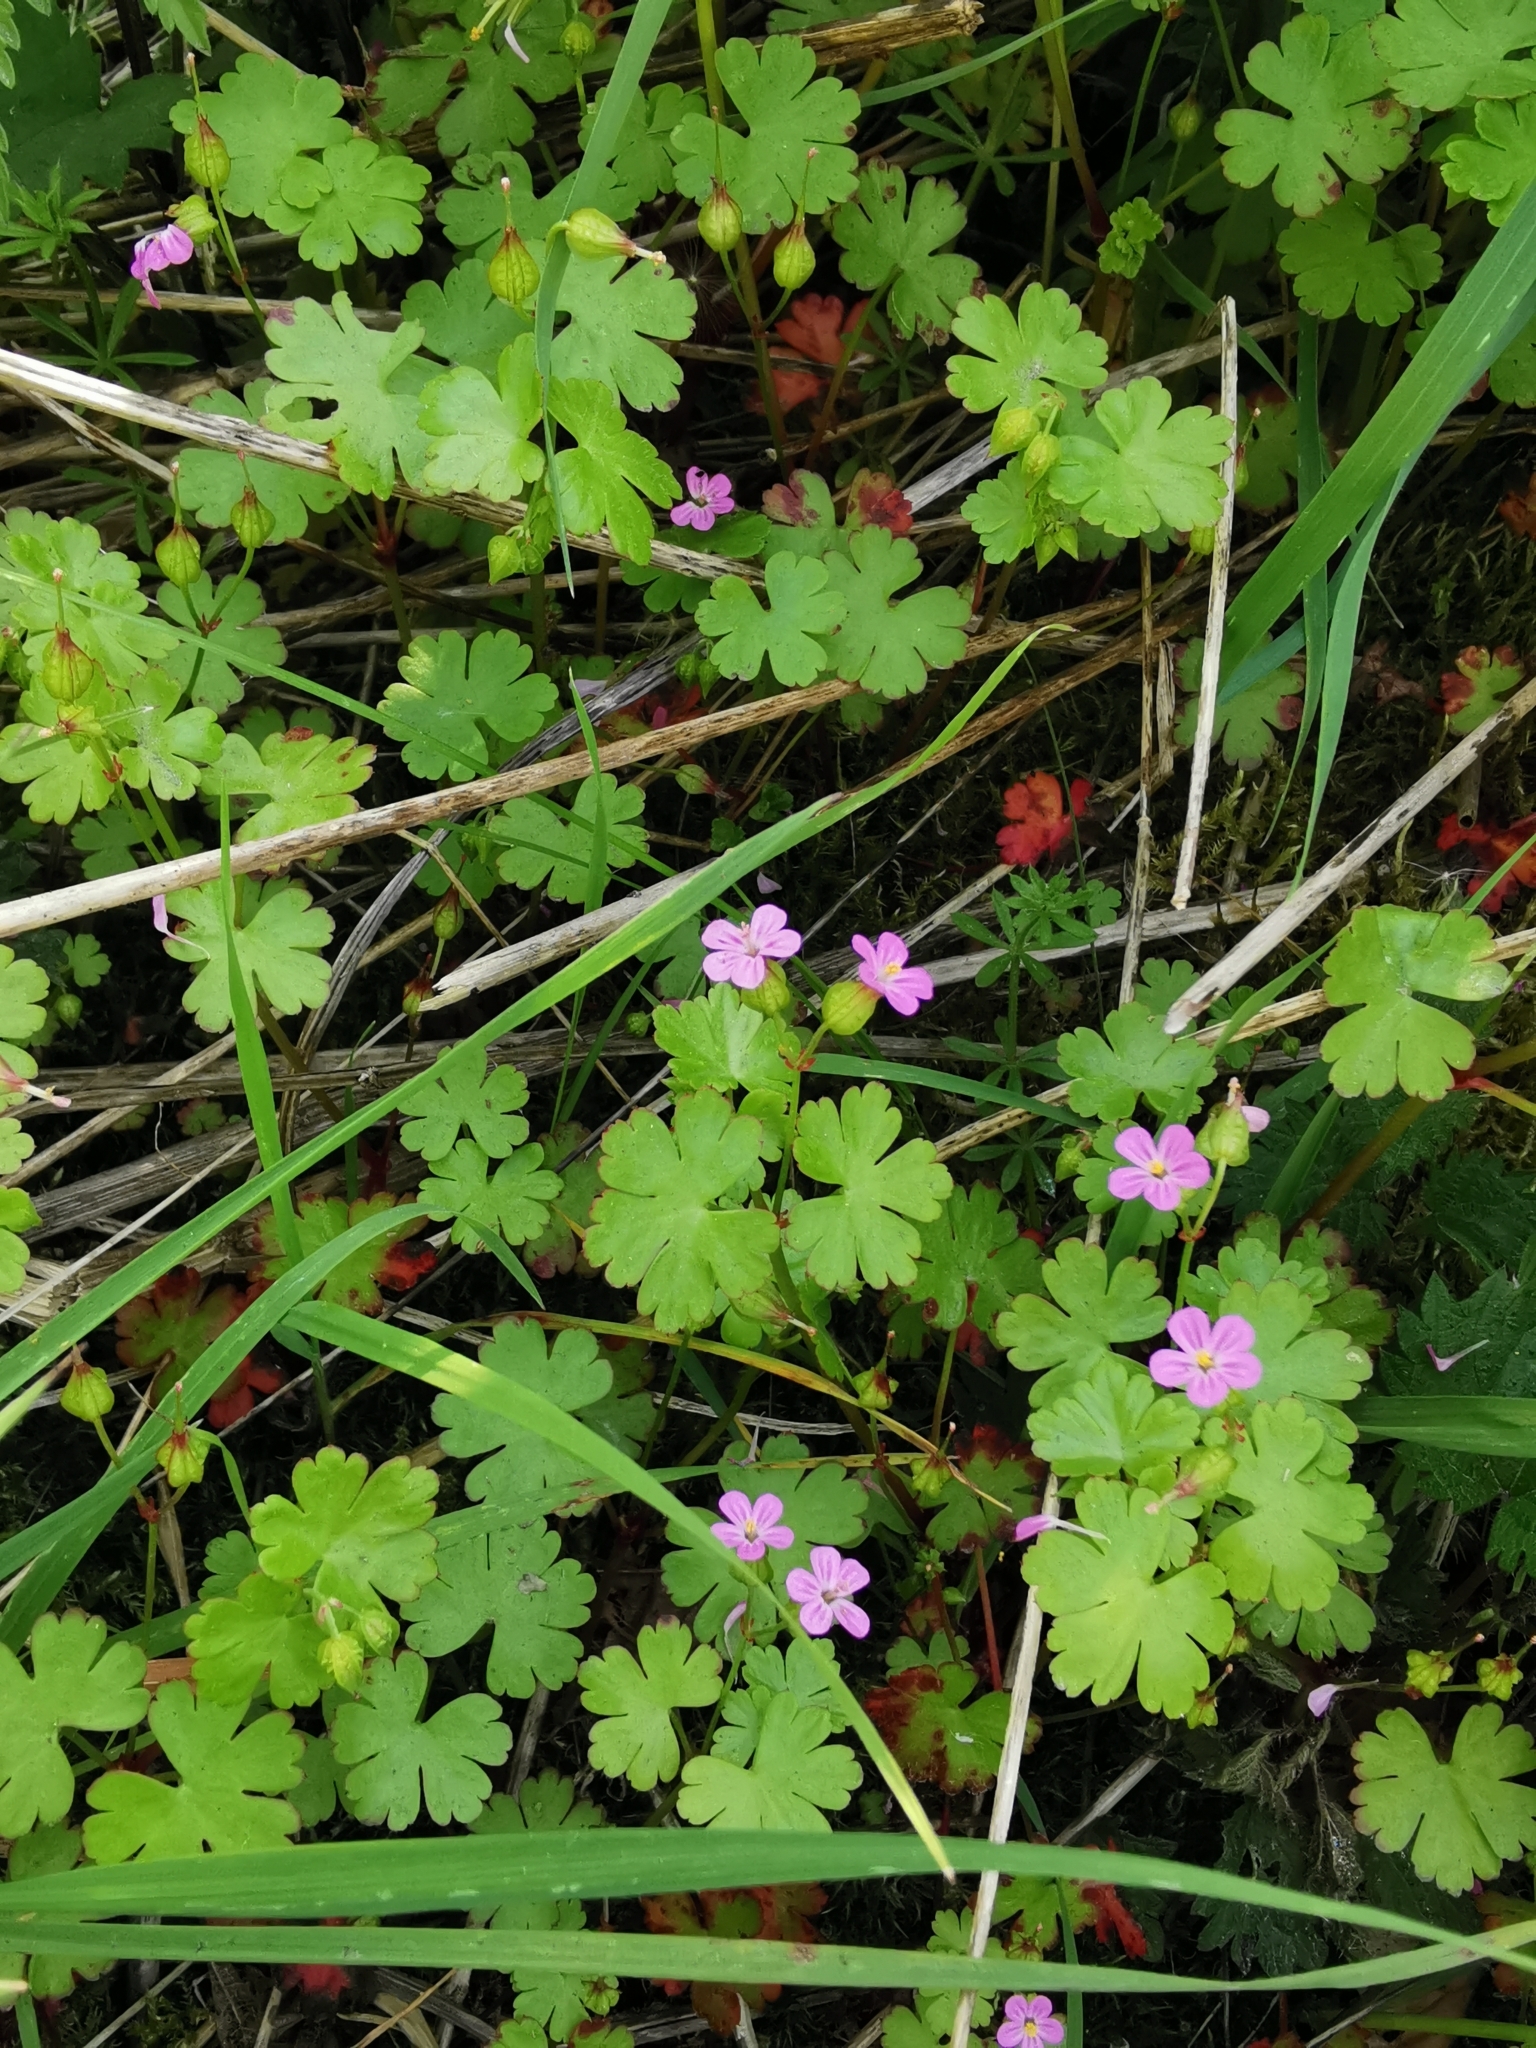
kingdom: Plantae
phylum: Tracheophyta
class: Magnoliopsida
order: Geraniales
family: Geraniaceae
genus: Geranium
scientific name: Geranium lucidum
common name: Shining crane's-bill
